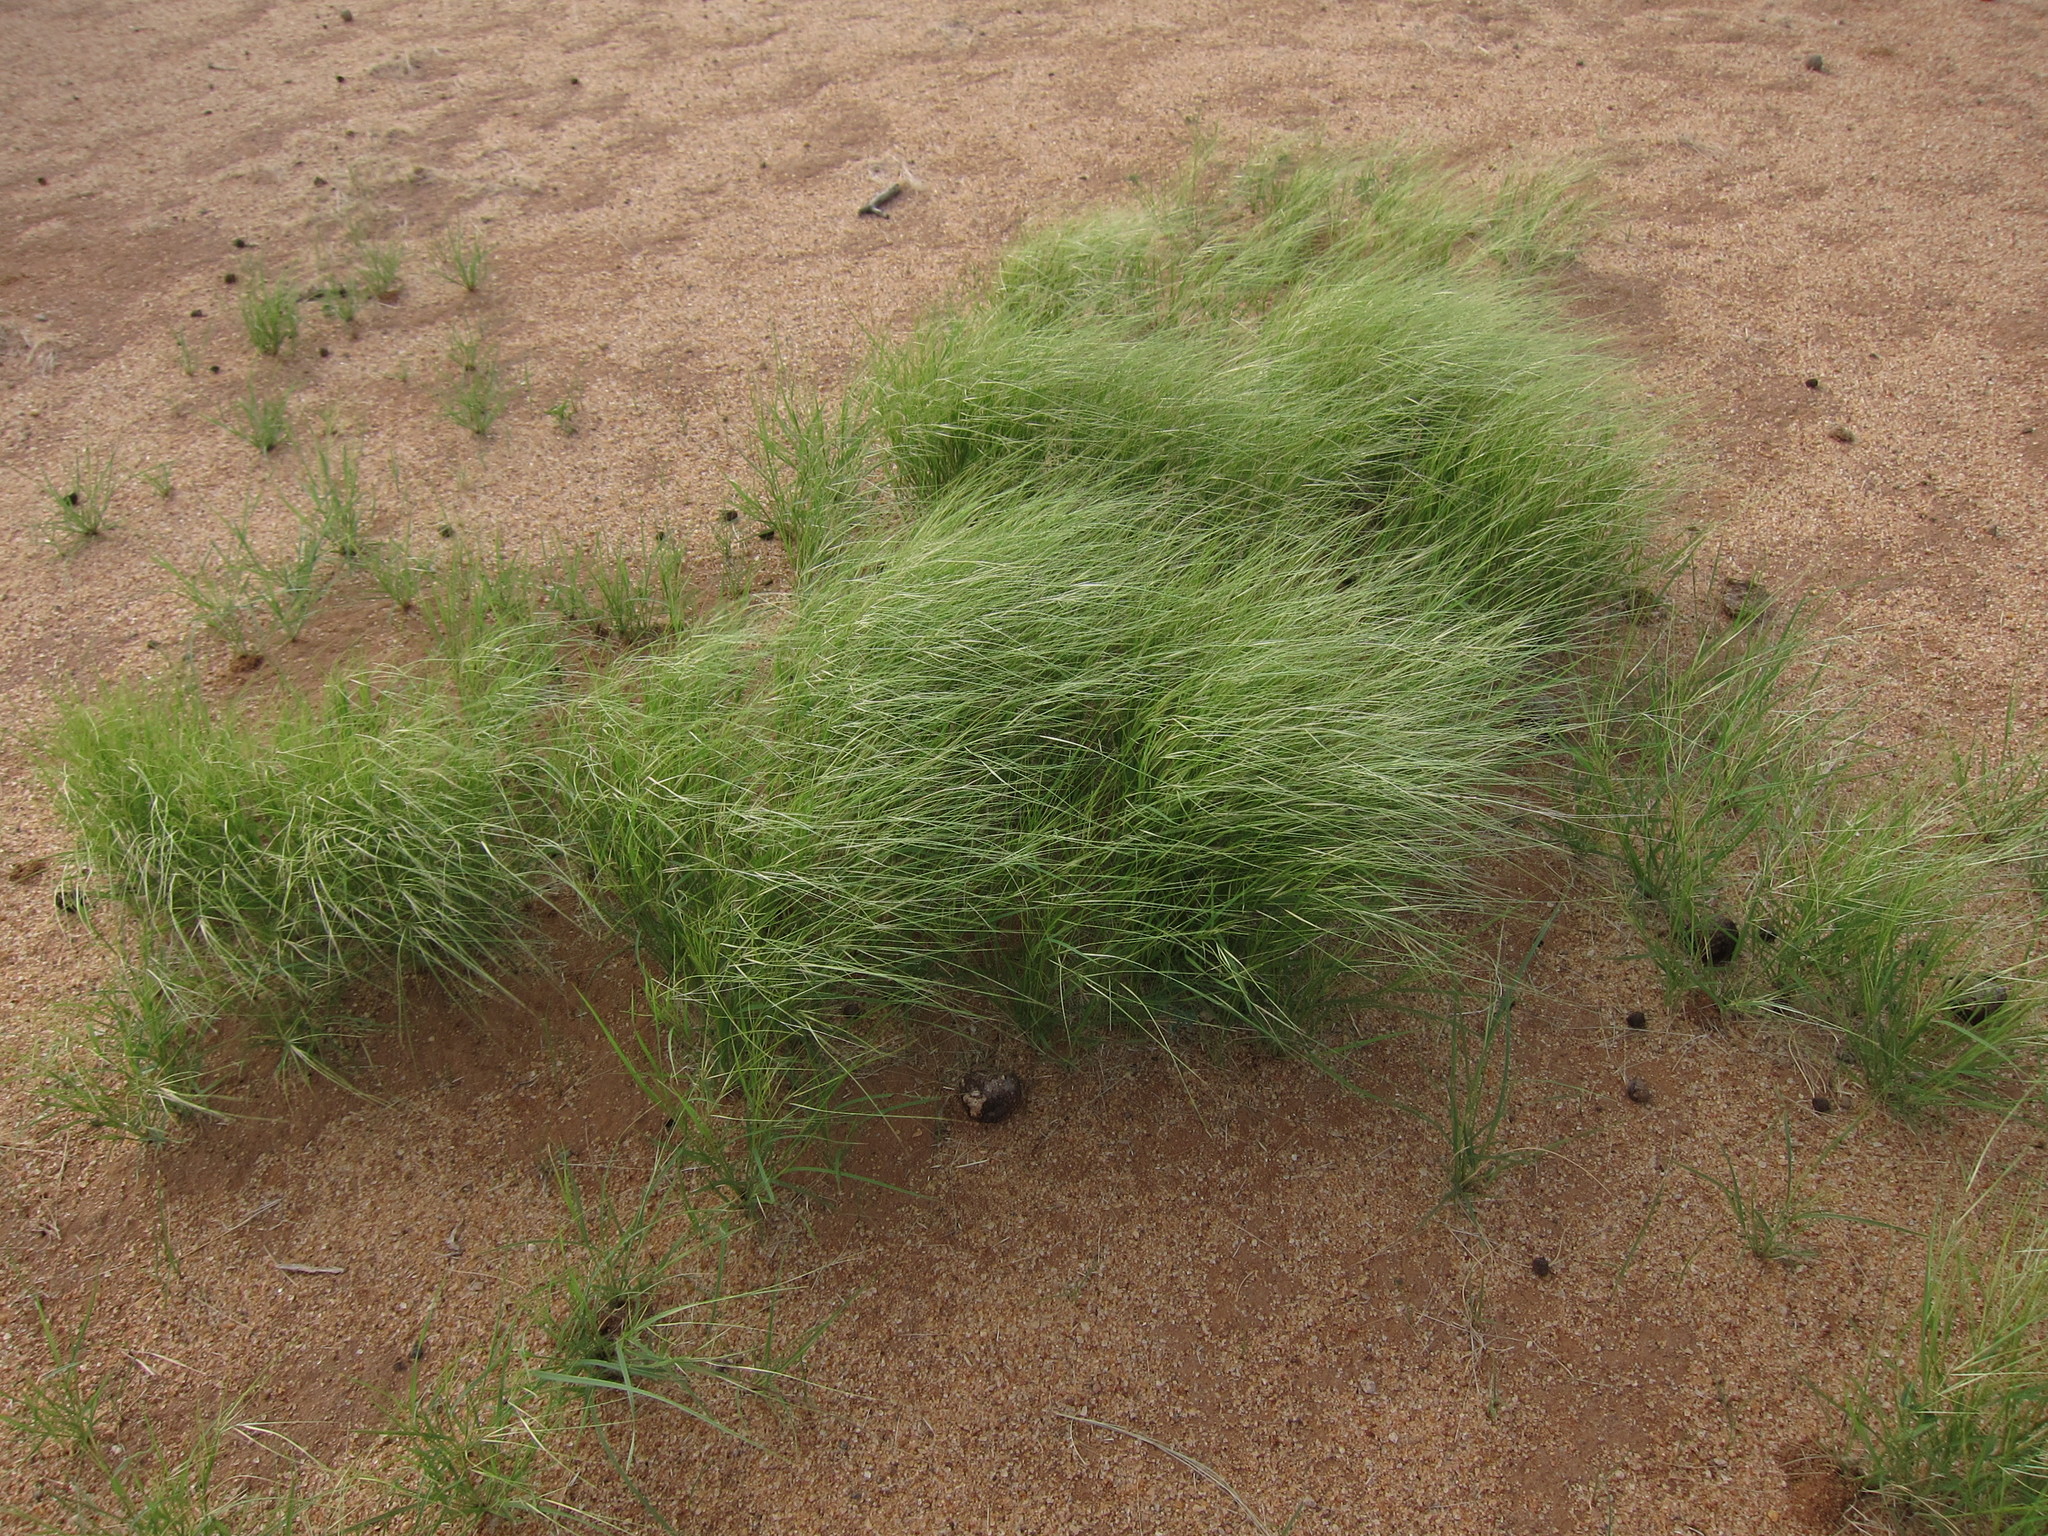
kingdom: Plantae
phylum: Tracheophyta
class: Liliopsida
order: Poales
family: Poaceae
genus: Aristida
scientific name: Aristida funiculata
